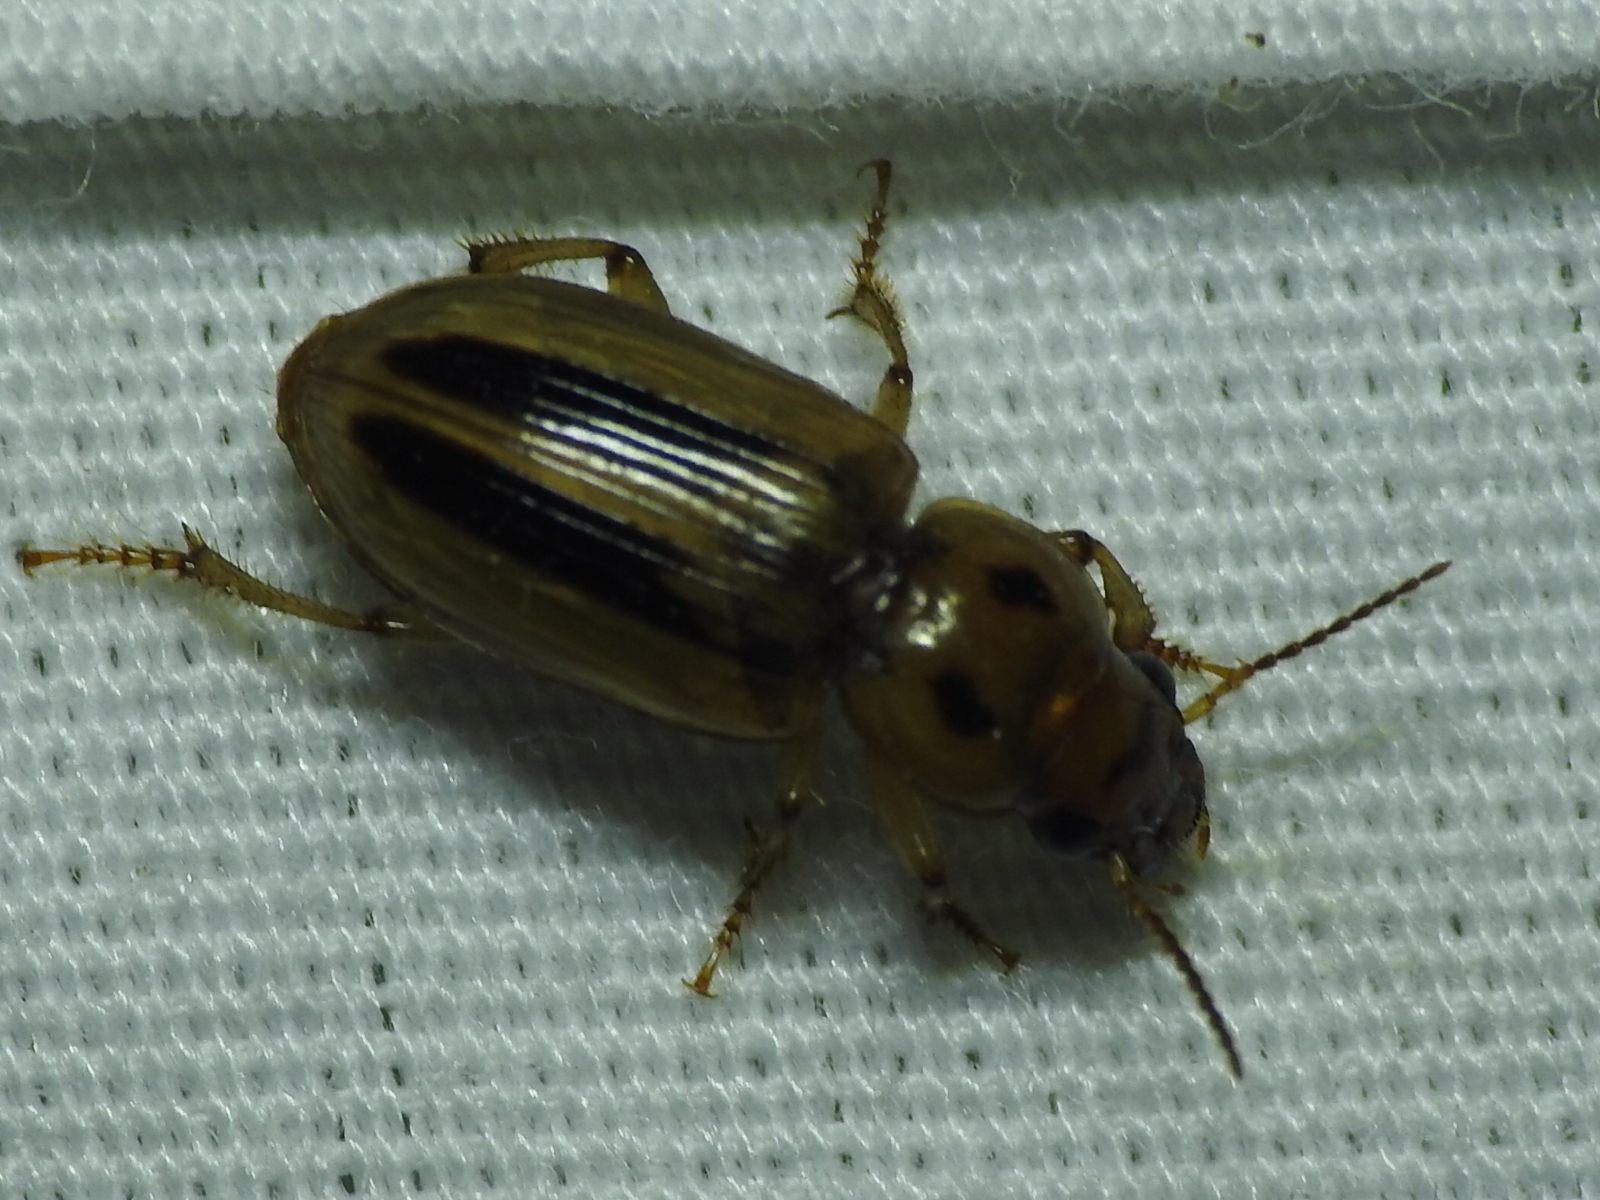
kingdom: Animalia
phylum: Arthropoda
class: Insecta
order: Coleoptera
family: Carabidae
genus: Stenolophus
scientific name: Stenolophus lineola
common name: Lined stenolophus
